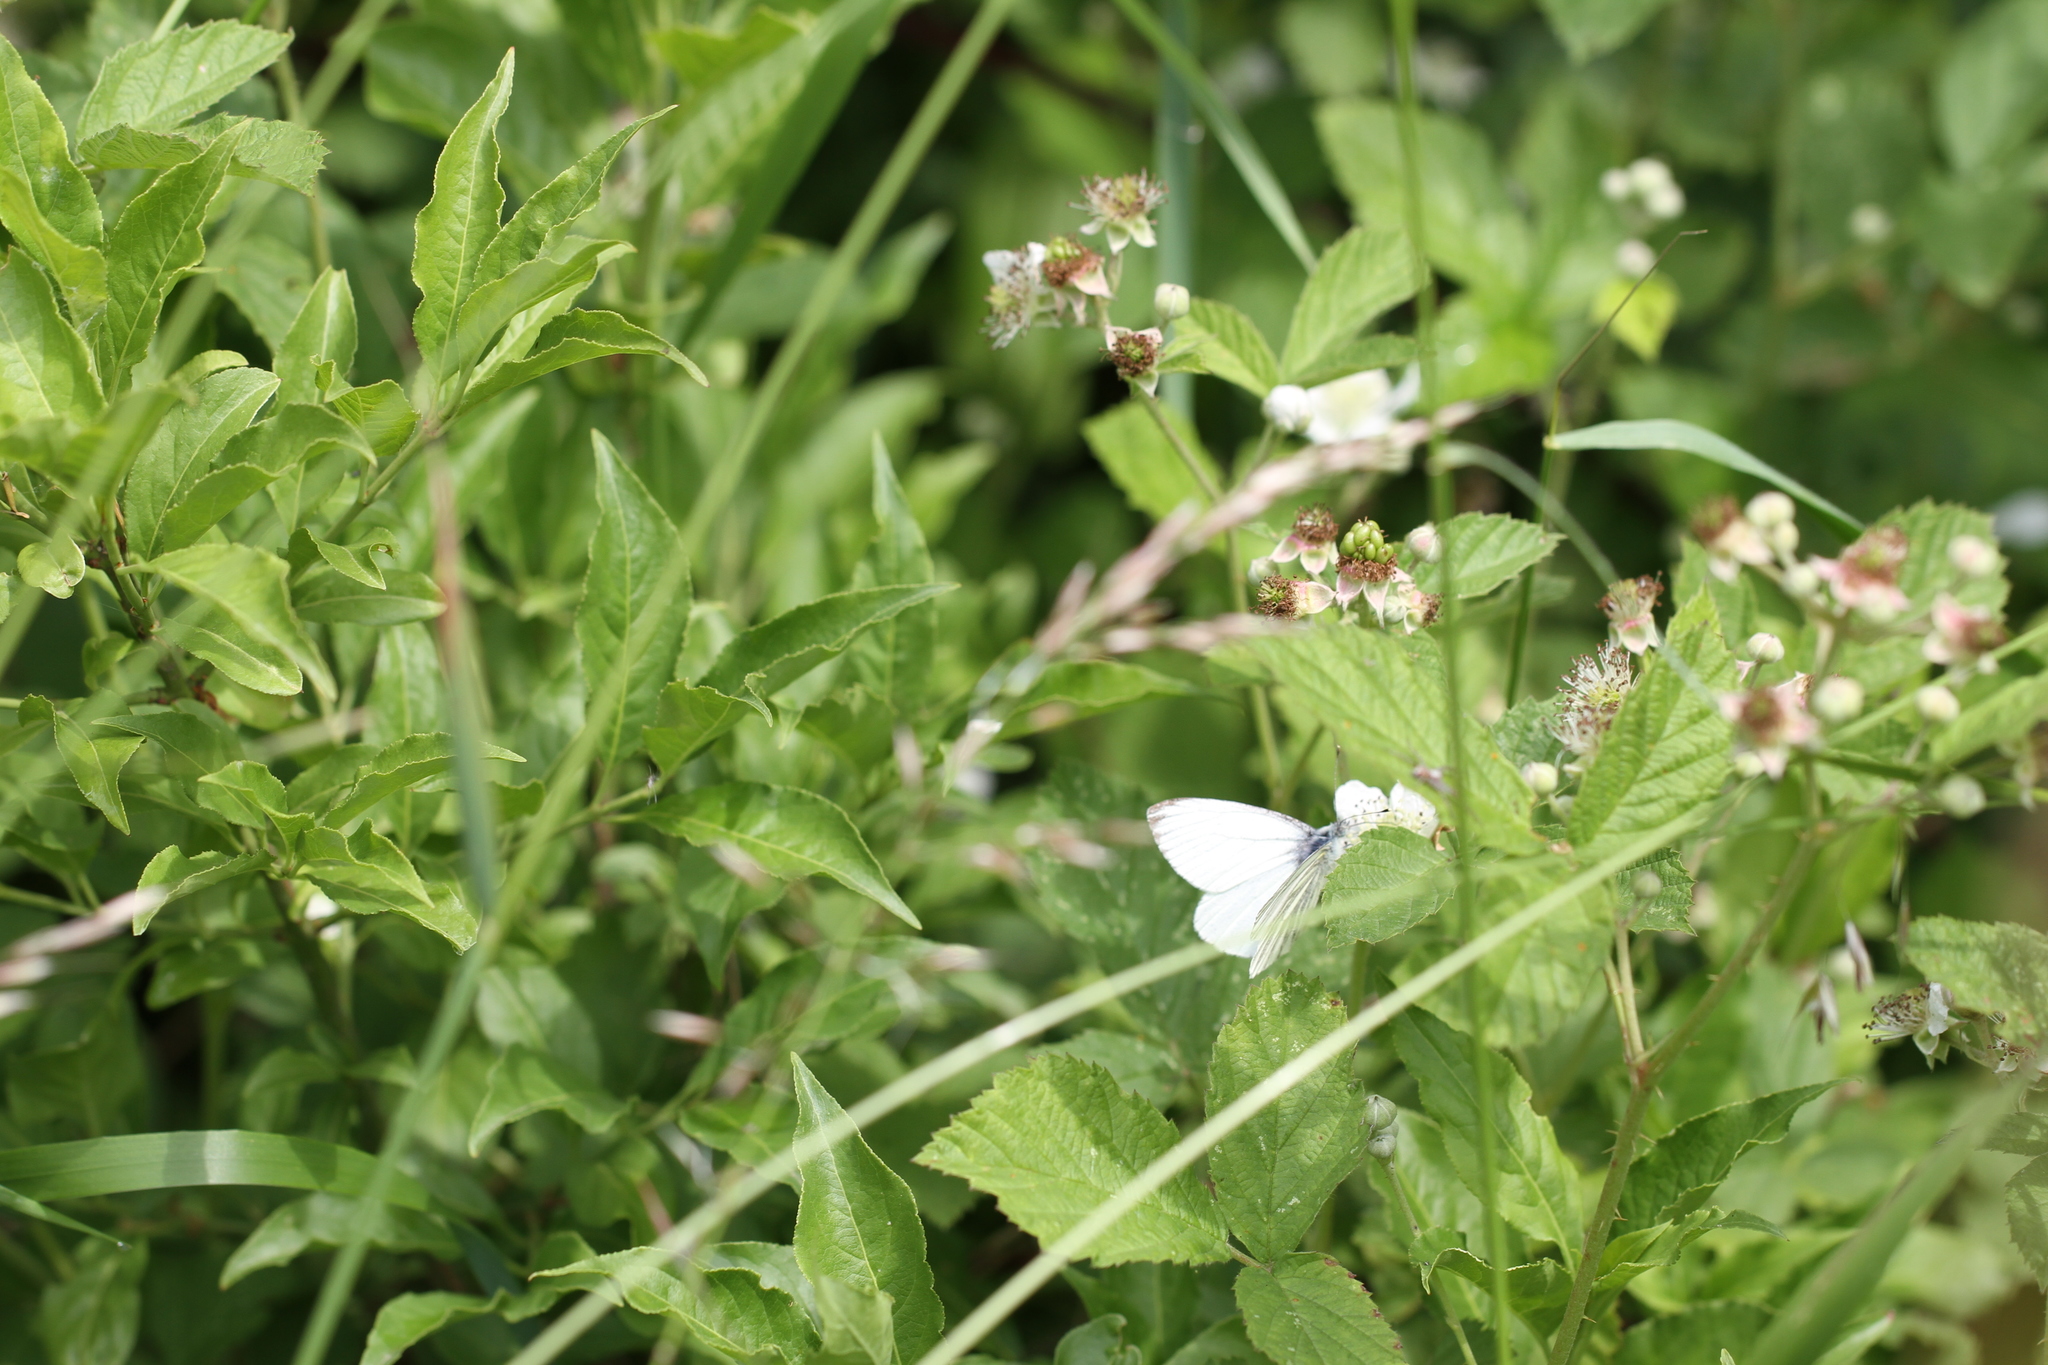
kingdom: Animalia
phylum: Arthropoda
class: Insecta
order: Lepidoptera
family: Pieridae
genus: Pieris
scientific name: Pieris napi
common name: Green-veined white
